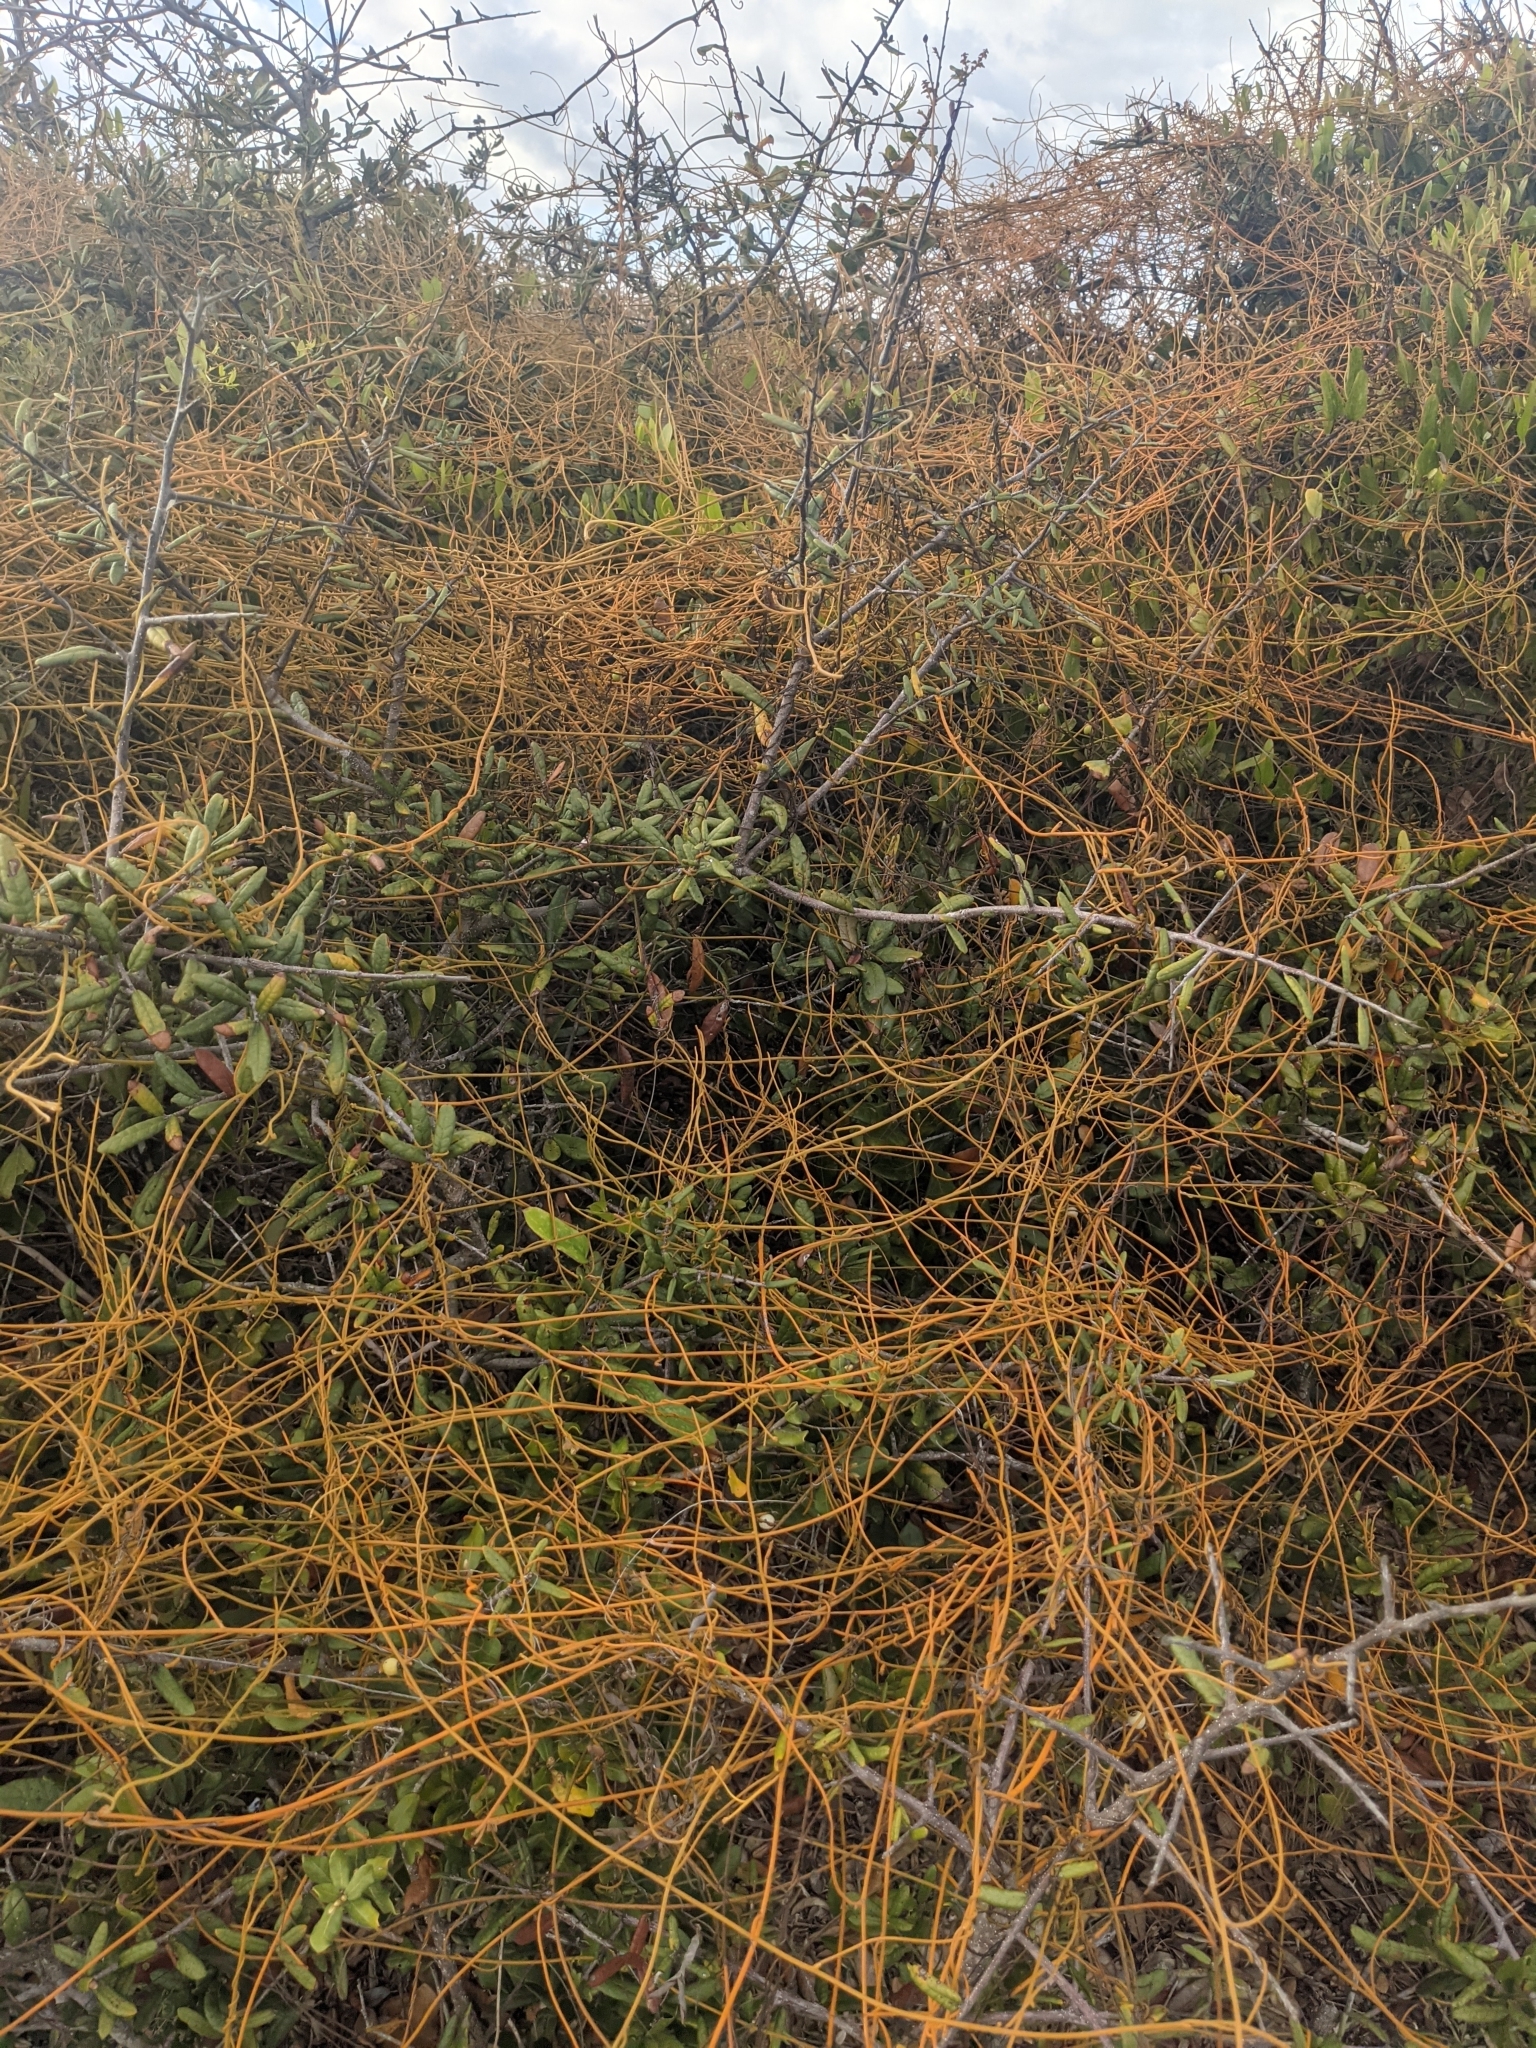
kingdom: Plantae
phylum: Tracheophyta
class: Magnoliopsida
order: Laurales
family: Lauraceae
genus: Cassytha
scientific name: Cassytha filiformis
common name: Dodder-laurel
